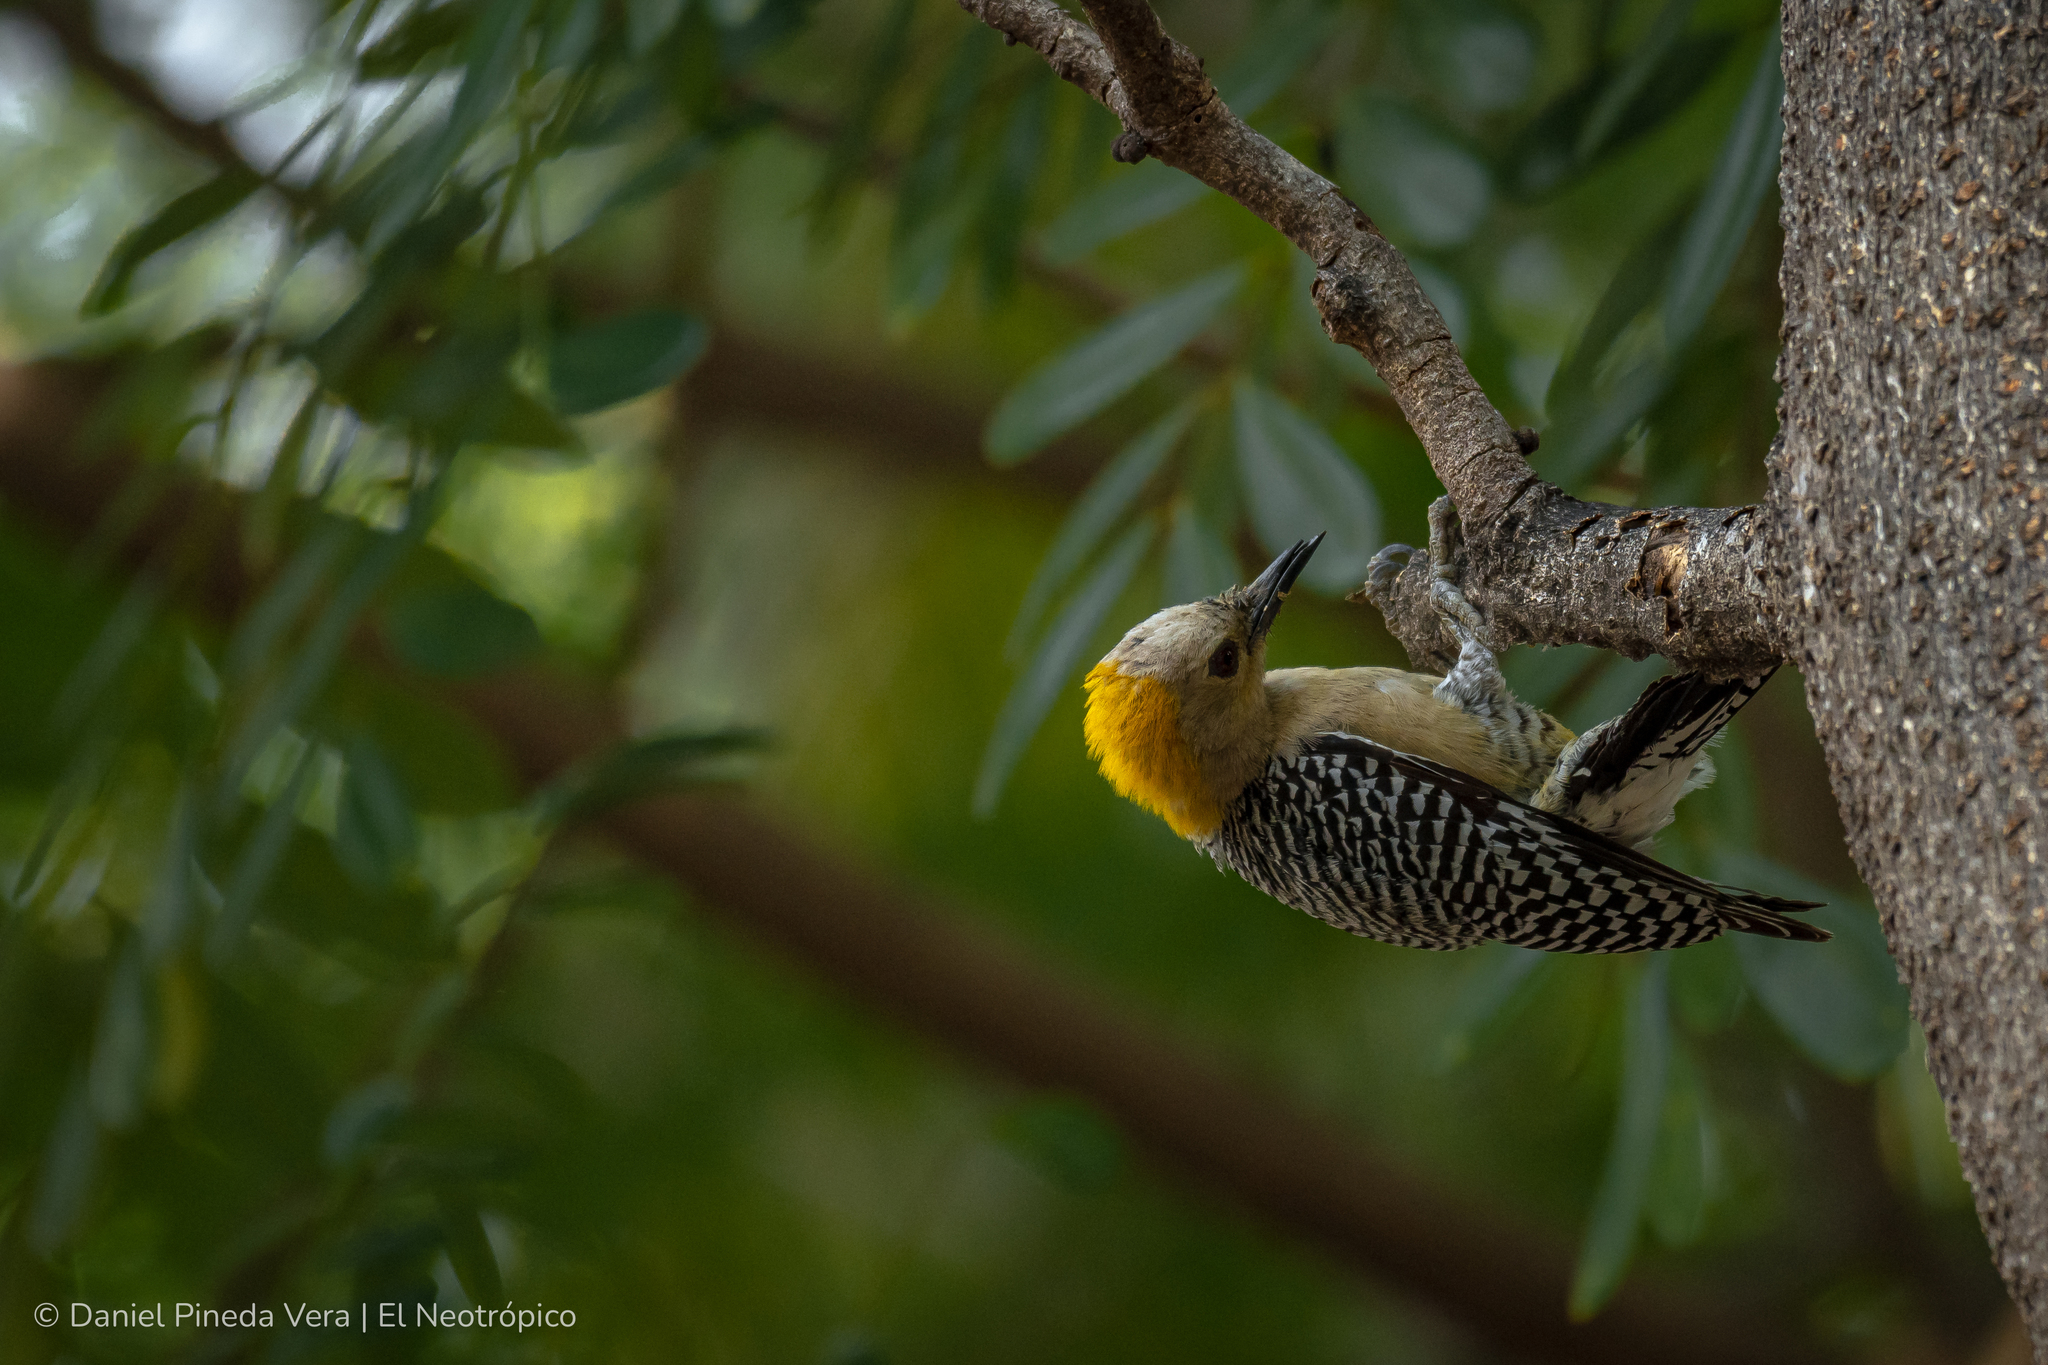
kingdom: Animalia
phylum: Chordata
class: Aves
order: Piciformes
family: Picidae
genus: Melanerpes
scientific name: Melanerpes aurifrons
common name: Golden-fronted woodpecker
